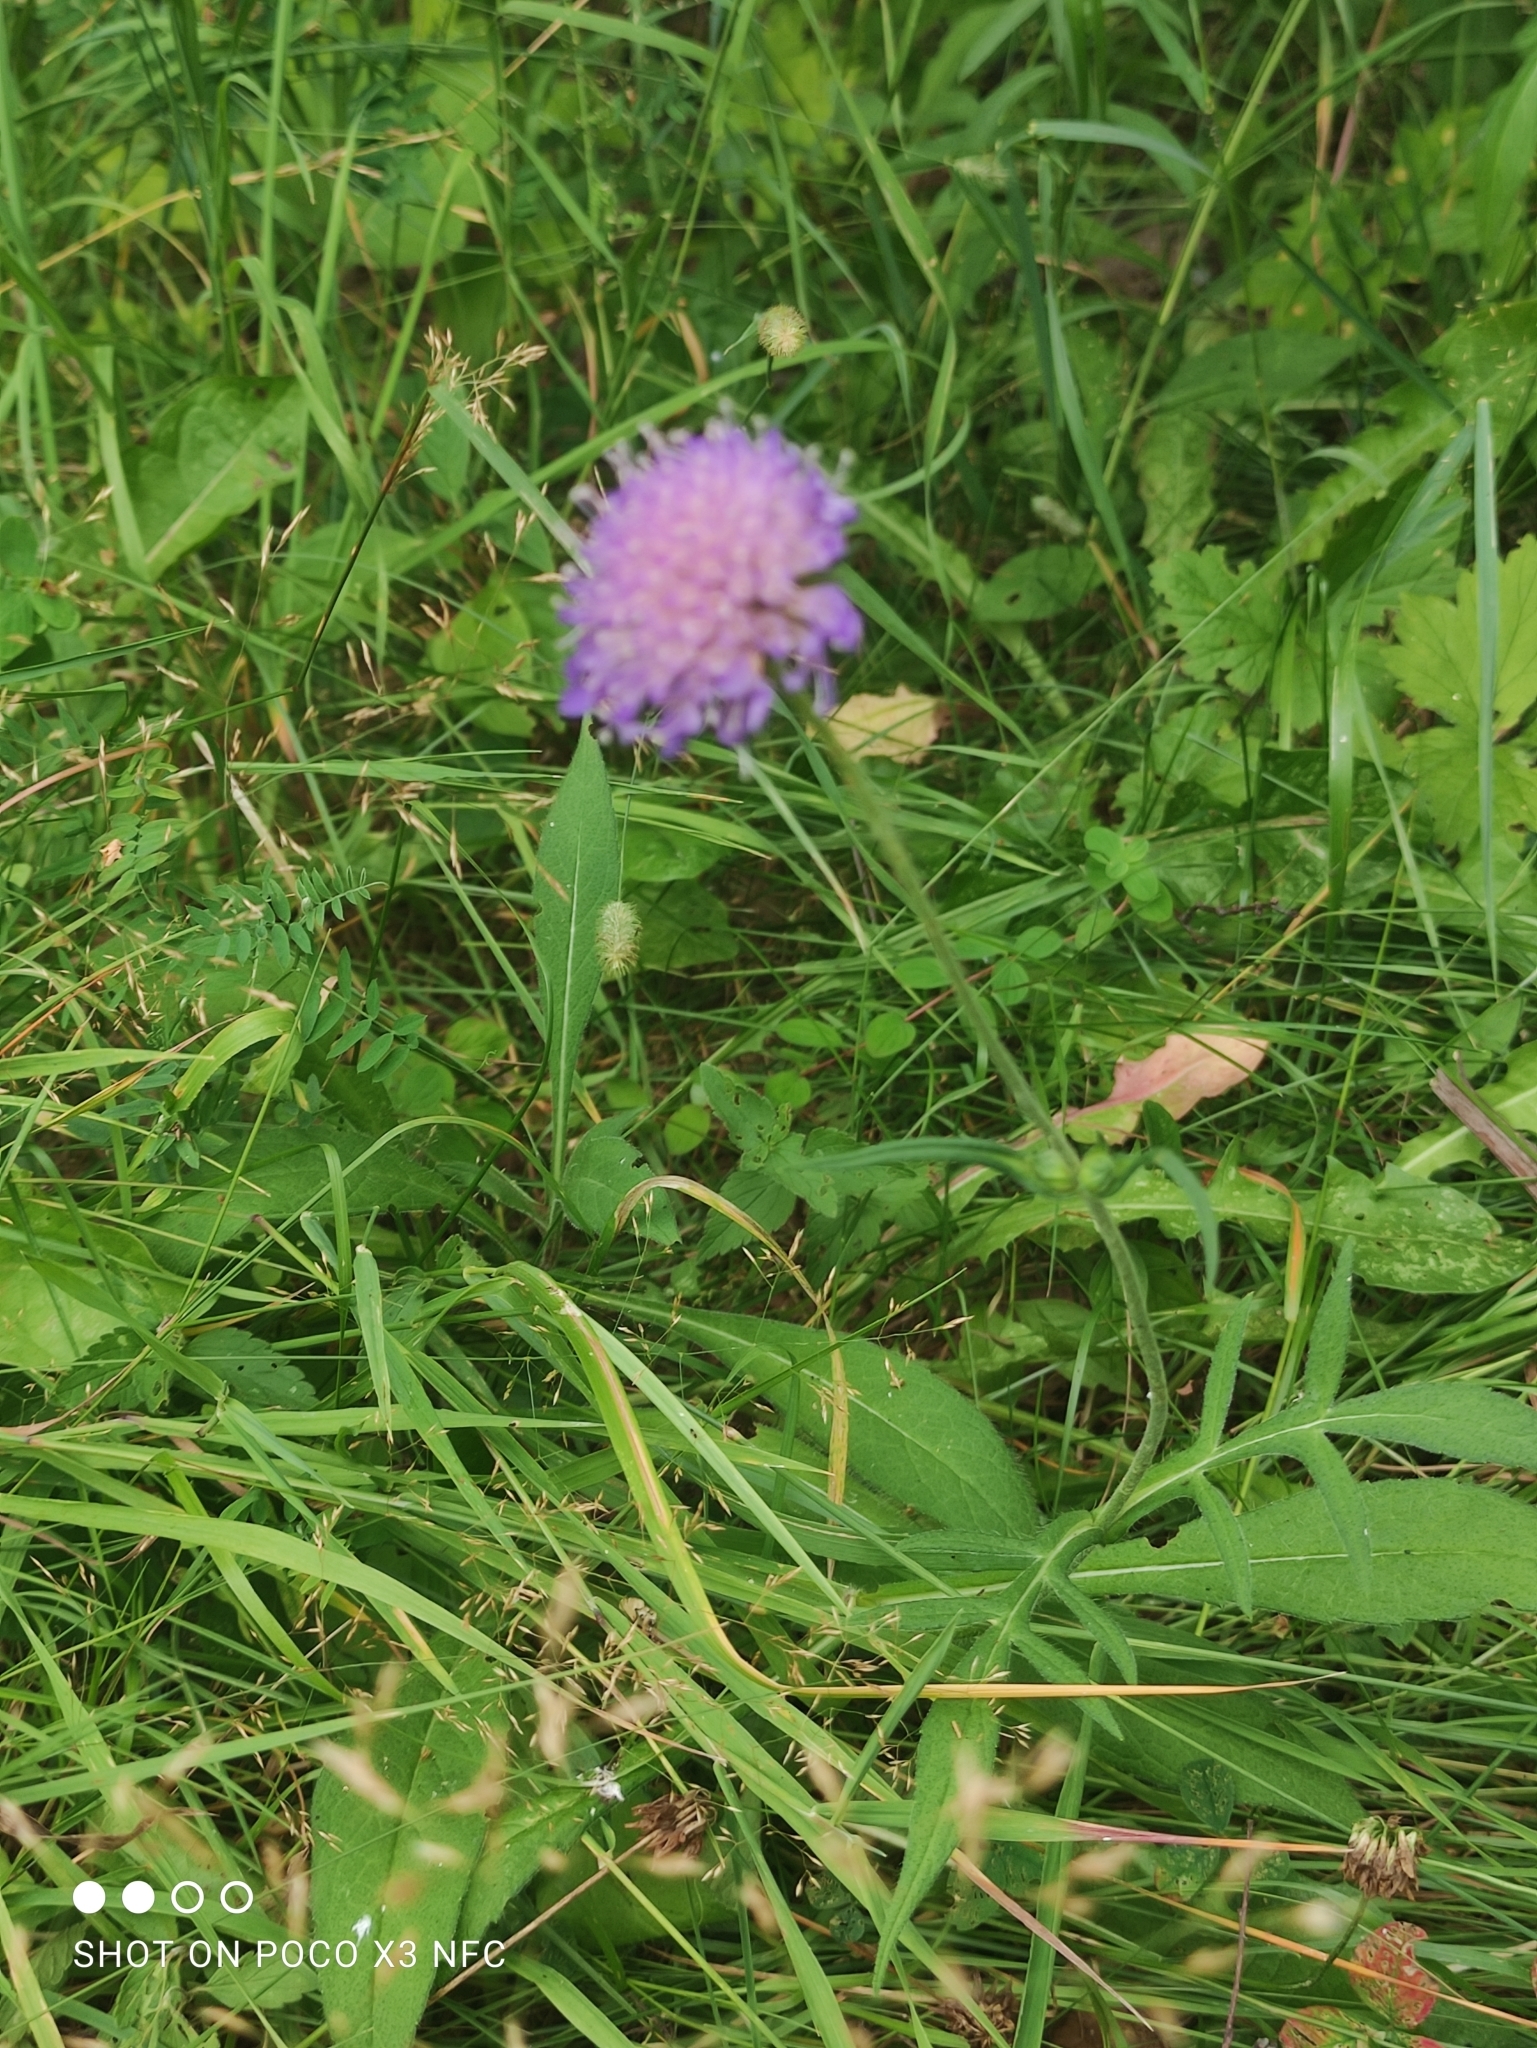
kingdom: Plantae
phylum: Tracheophyta
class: Magnoliopsida
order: Dipsacales
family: Caprifoliaceae
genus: Knautia
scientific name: Knautia arvensis
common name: Field scabiosa
